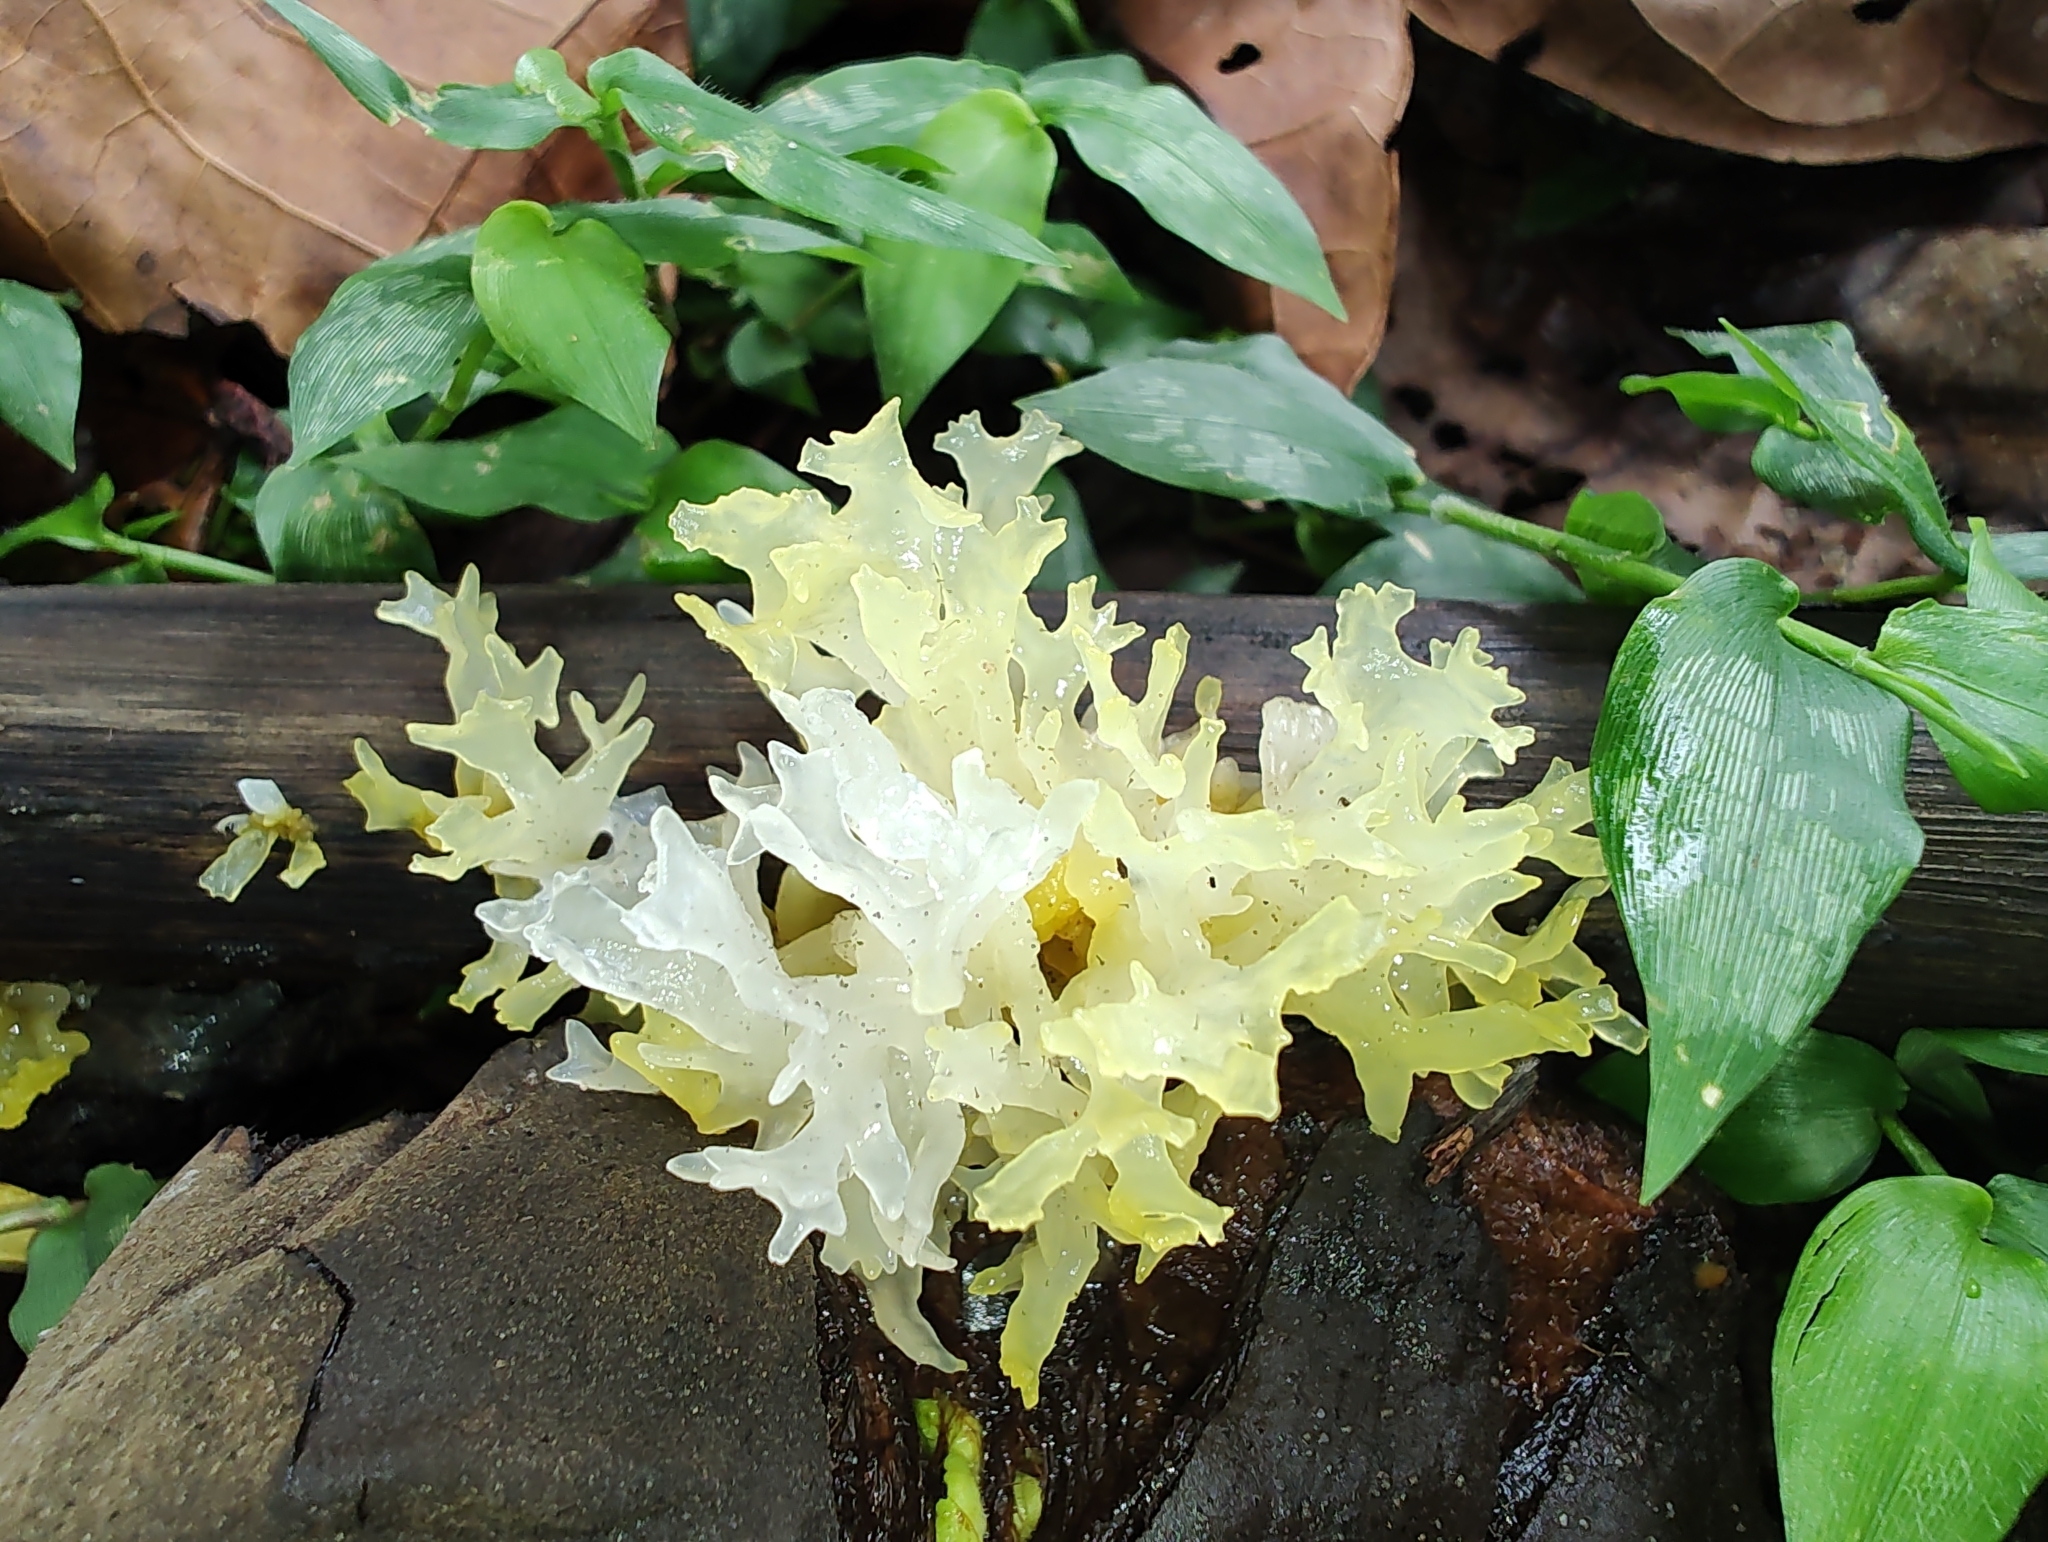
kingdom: Fungi
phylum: Basidiomycota
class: Tremellomycetes
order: Tremellales
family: Tremellaceae
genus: Tremella
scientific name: Tremella fuciformis
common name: Snow fungus
